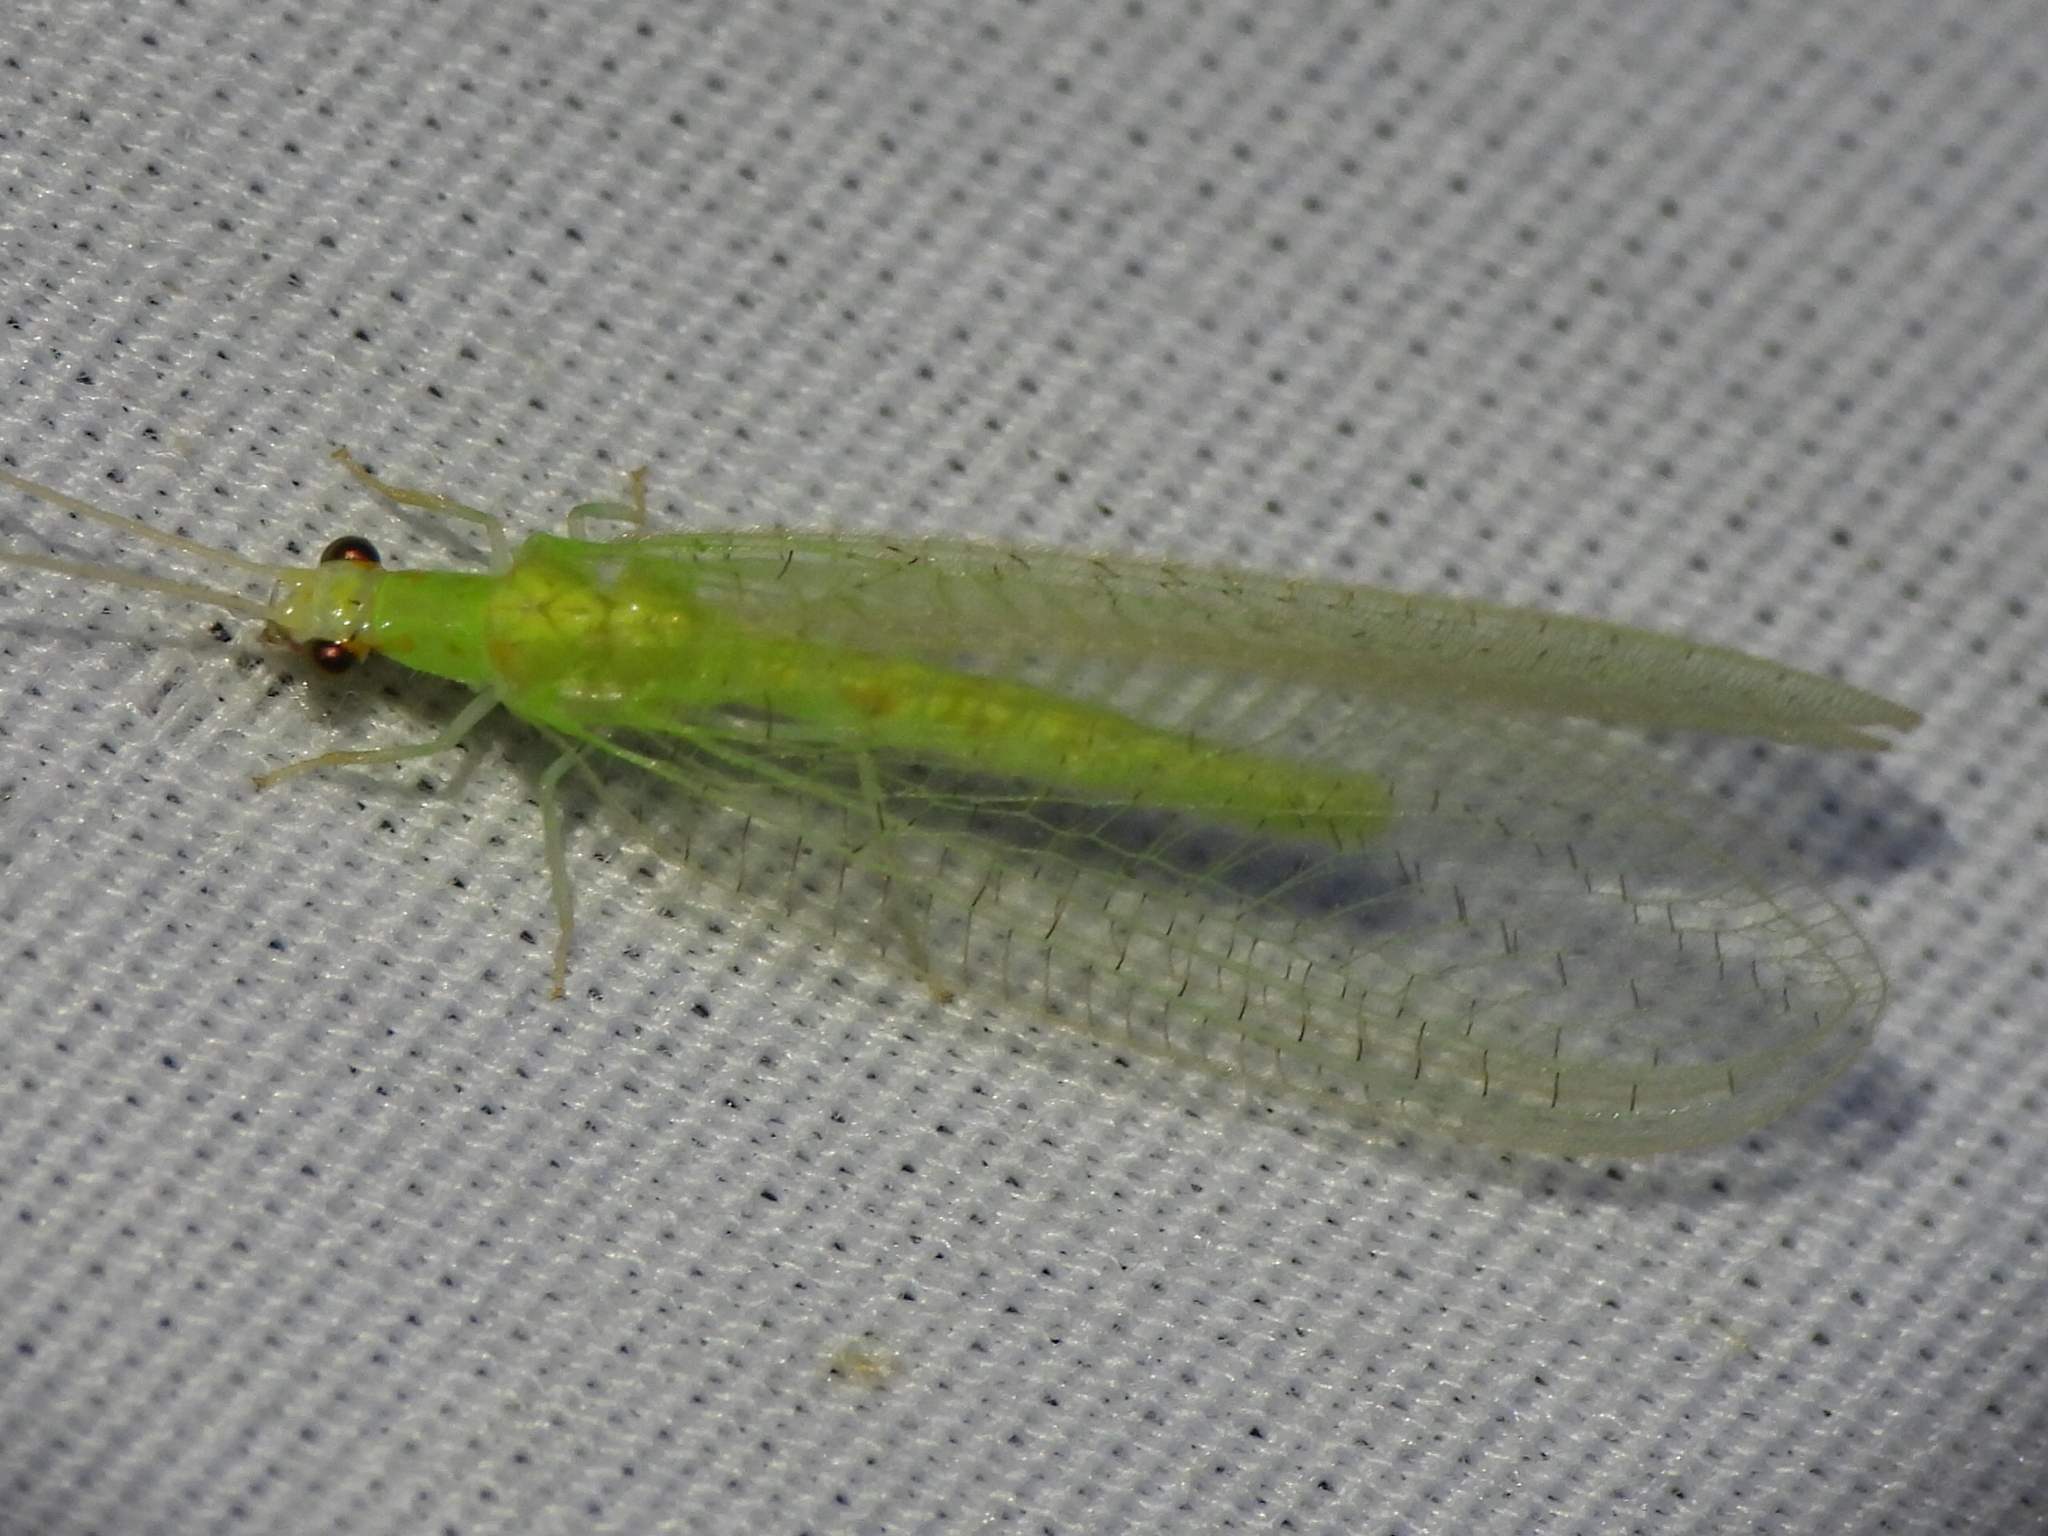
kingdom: Animalia
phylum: Arthropoda
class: Insecta
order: Neuroptera
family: Chrysopidae
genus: Chrysopa
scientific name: Chrysopa quadripunctata
